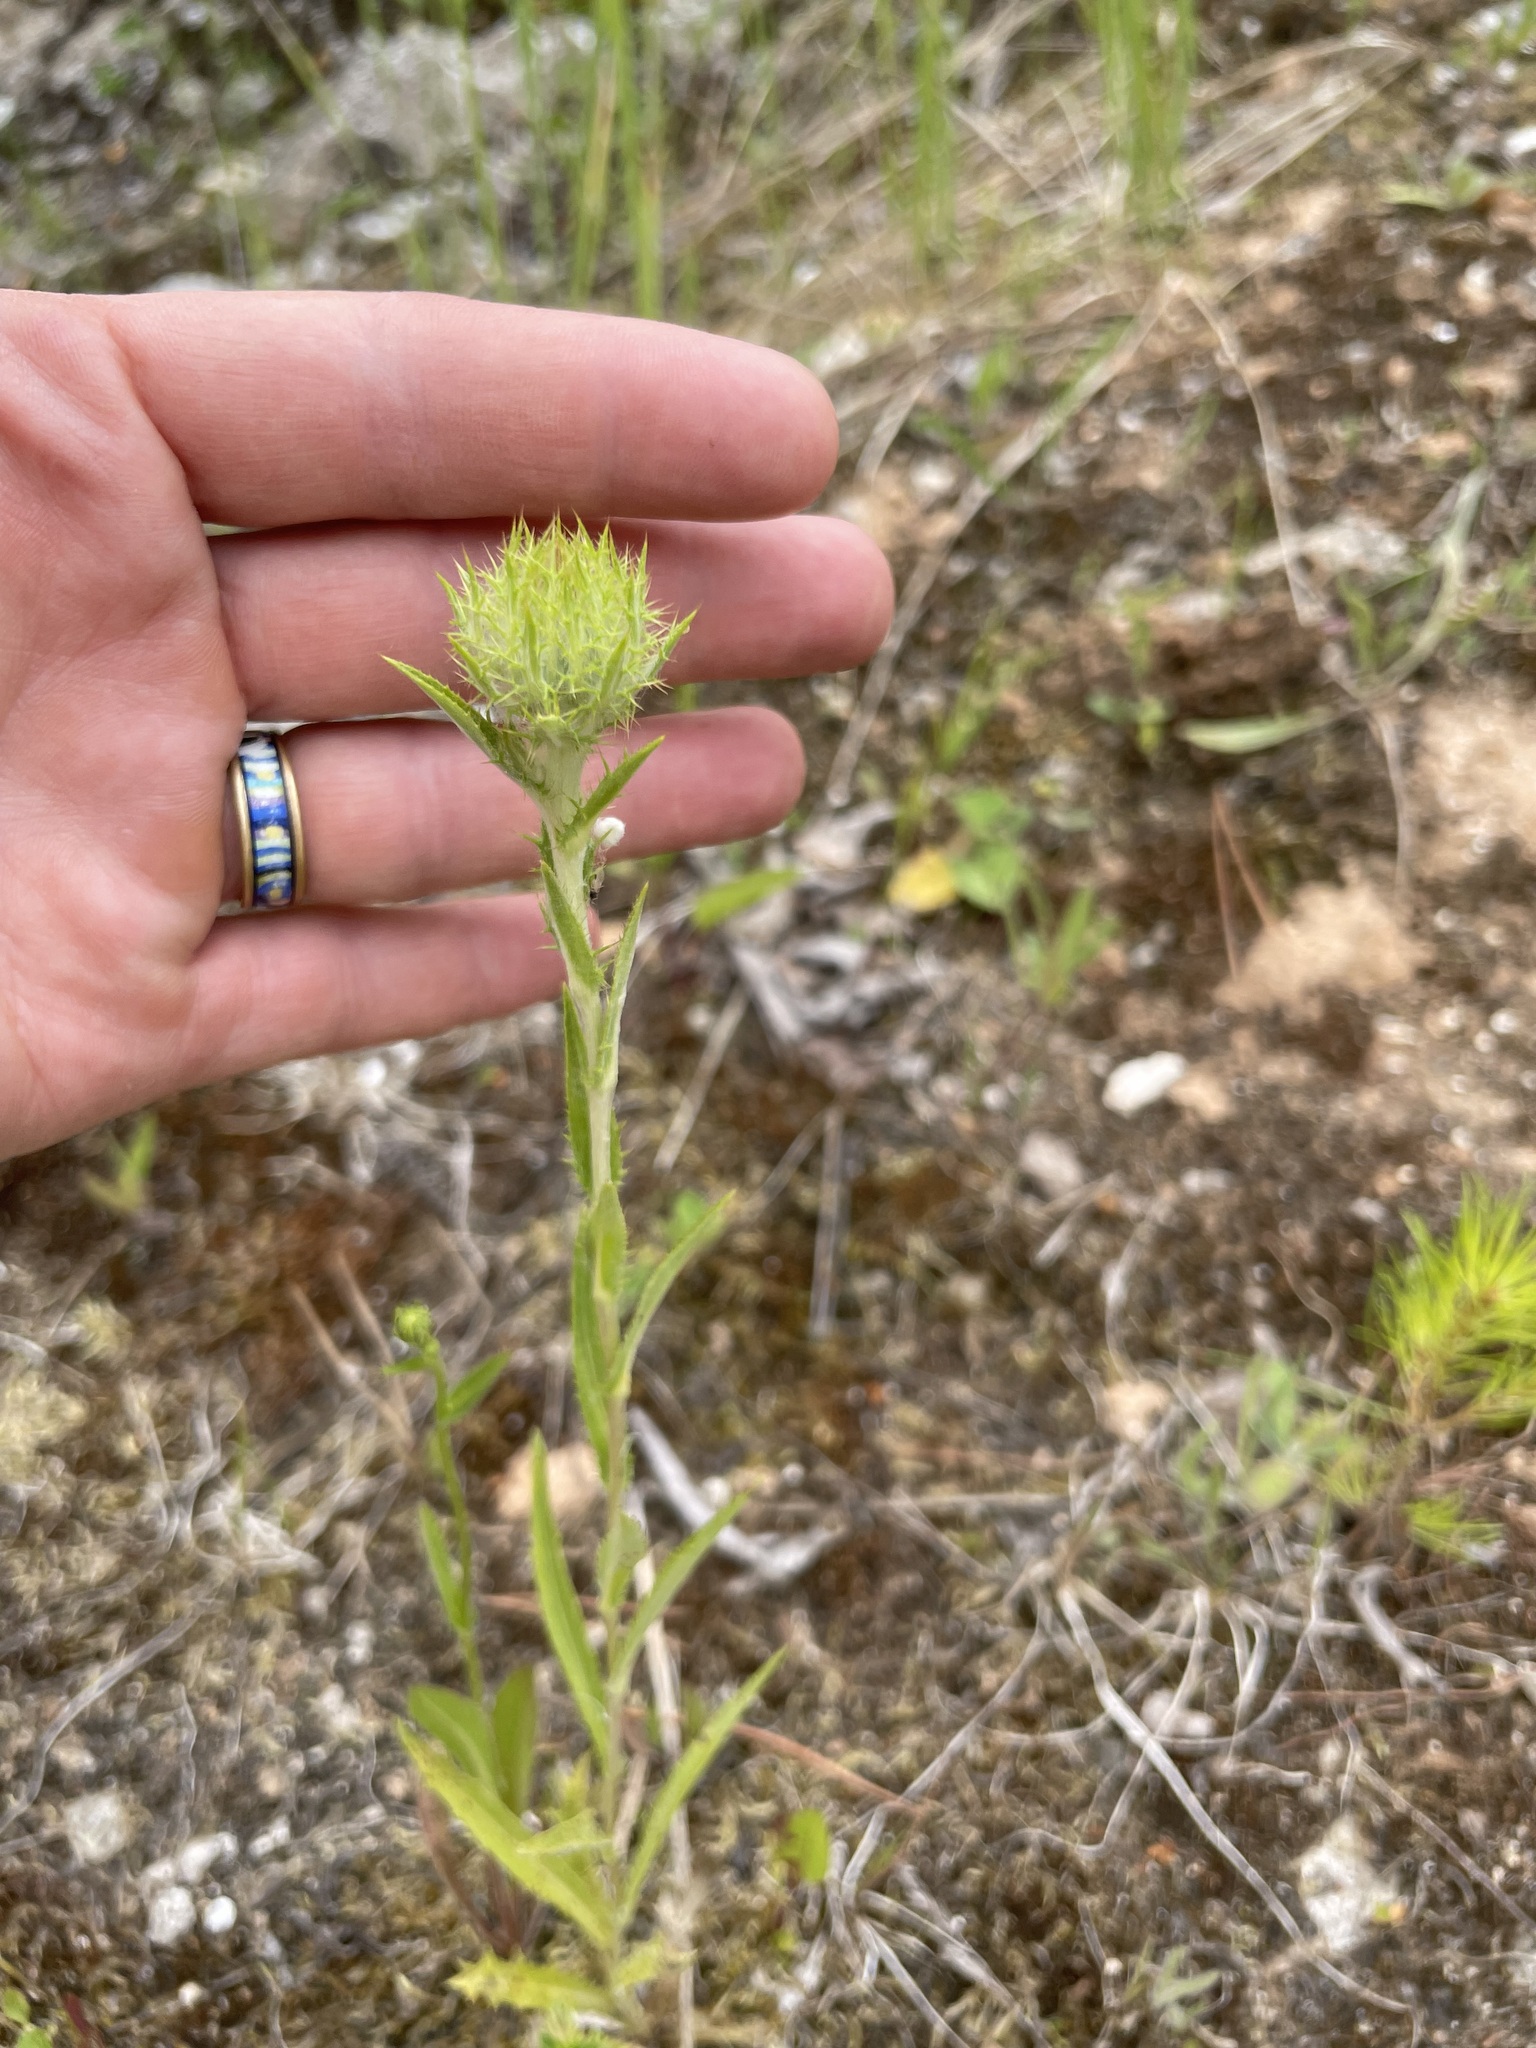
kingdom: Plantae
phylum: Tracheophyta
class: Magnoliopsida
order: Asterales
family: Asteraceae
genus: Carlina
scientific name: Carlina biebersteinii
